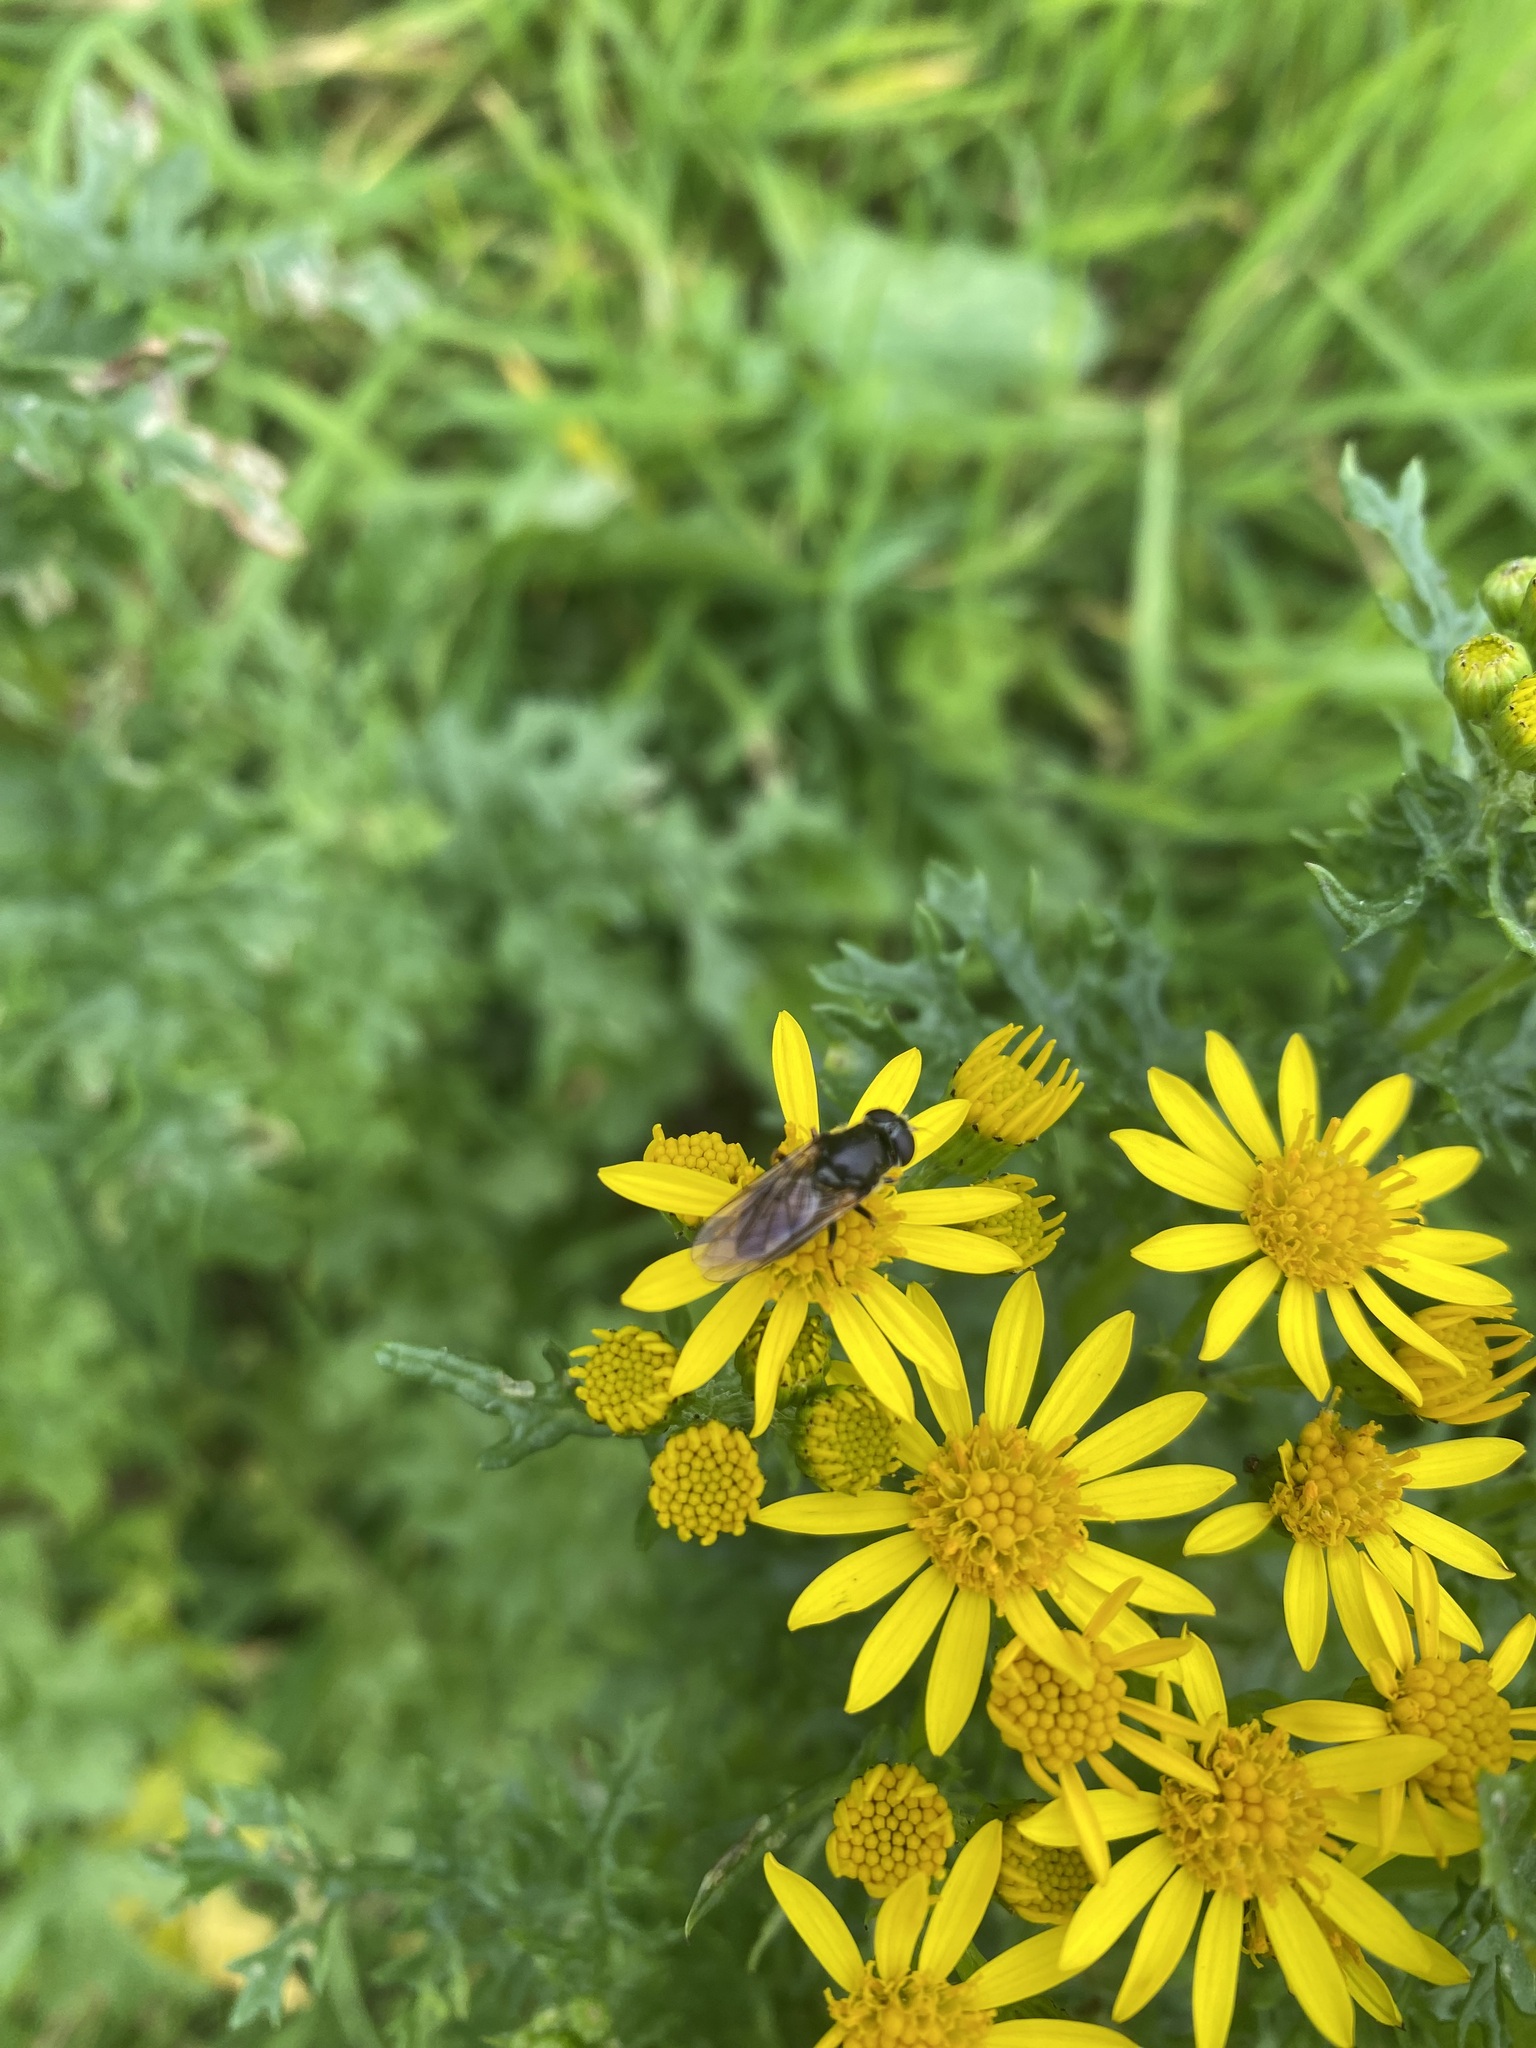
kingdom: Animalia
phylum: Arthropoda
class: Insecta
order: Diptera
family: Syrphidae
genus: Cheilosia
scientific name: Cheilosia
